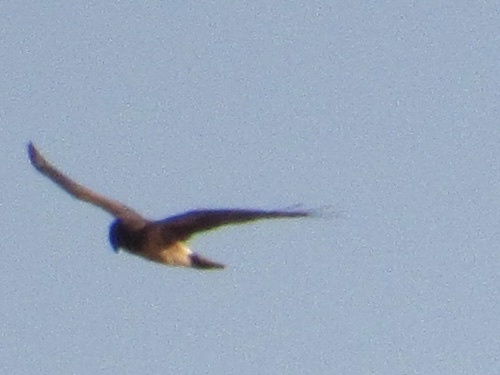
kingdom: Animalia
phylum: Chordata
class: Aves
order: Accipitriformes
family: Accipitridae
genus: Circus
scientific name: Circus cyaneus
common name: Hen harrier
